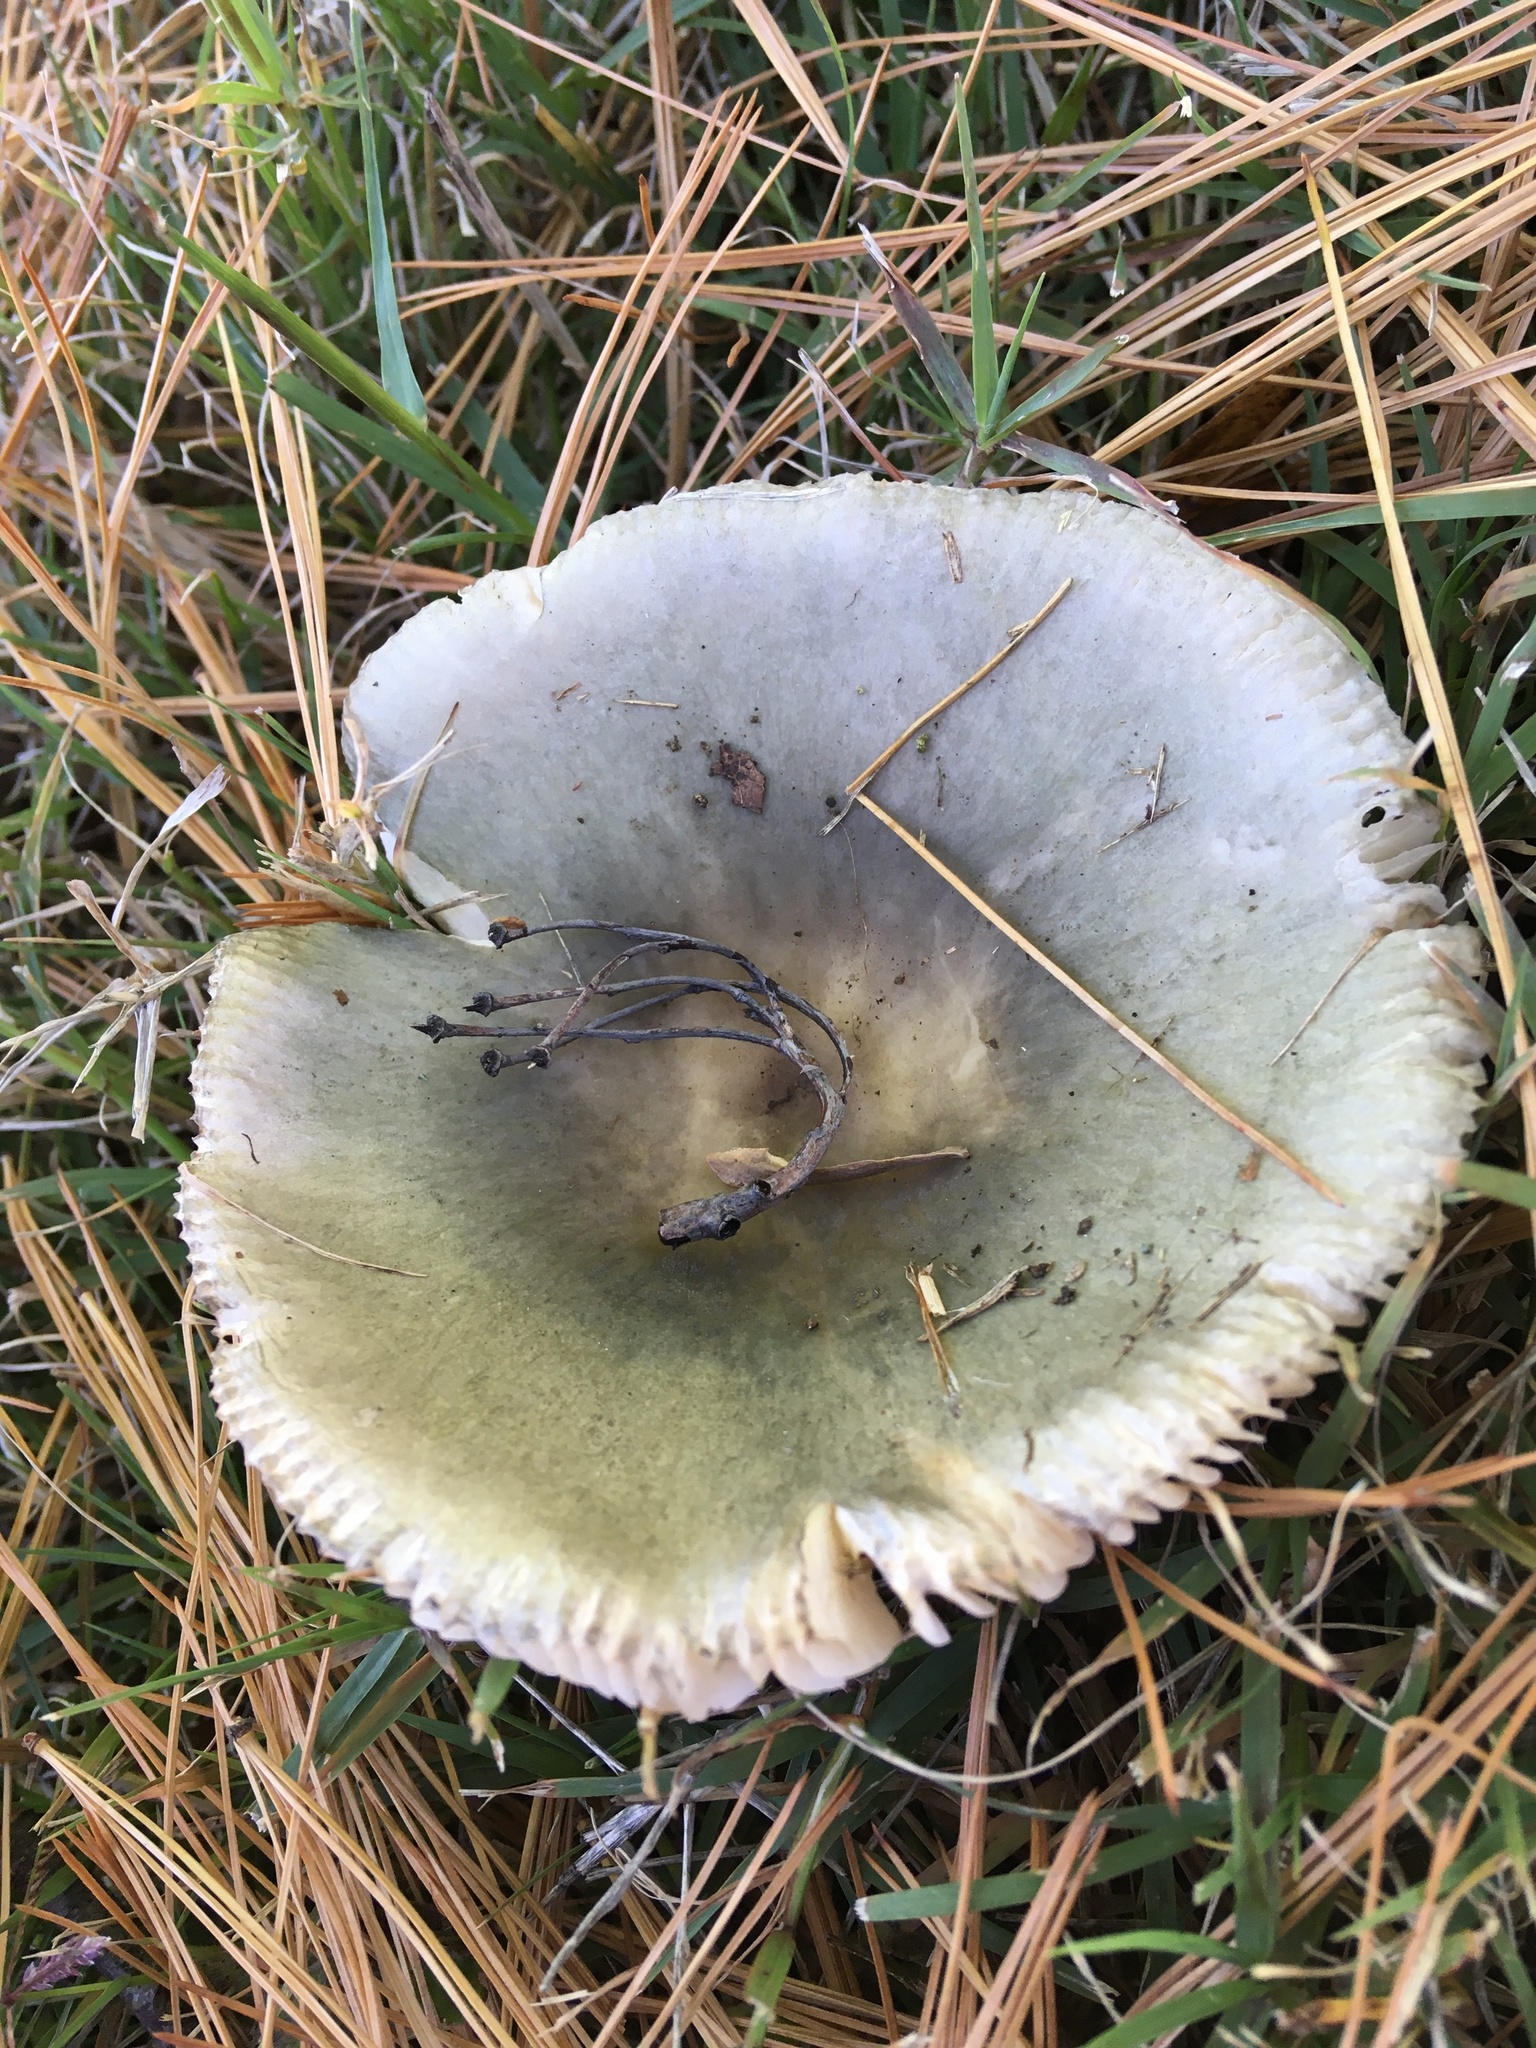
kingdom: Fungi
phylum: Basidiomycota
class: Agaricomycetes
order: Russulales
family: Russulaceae
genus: Russula
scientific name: Russula cyanoxantha
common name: Charcoal burner
